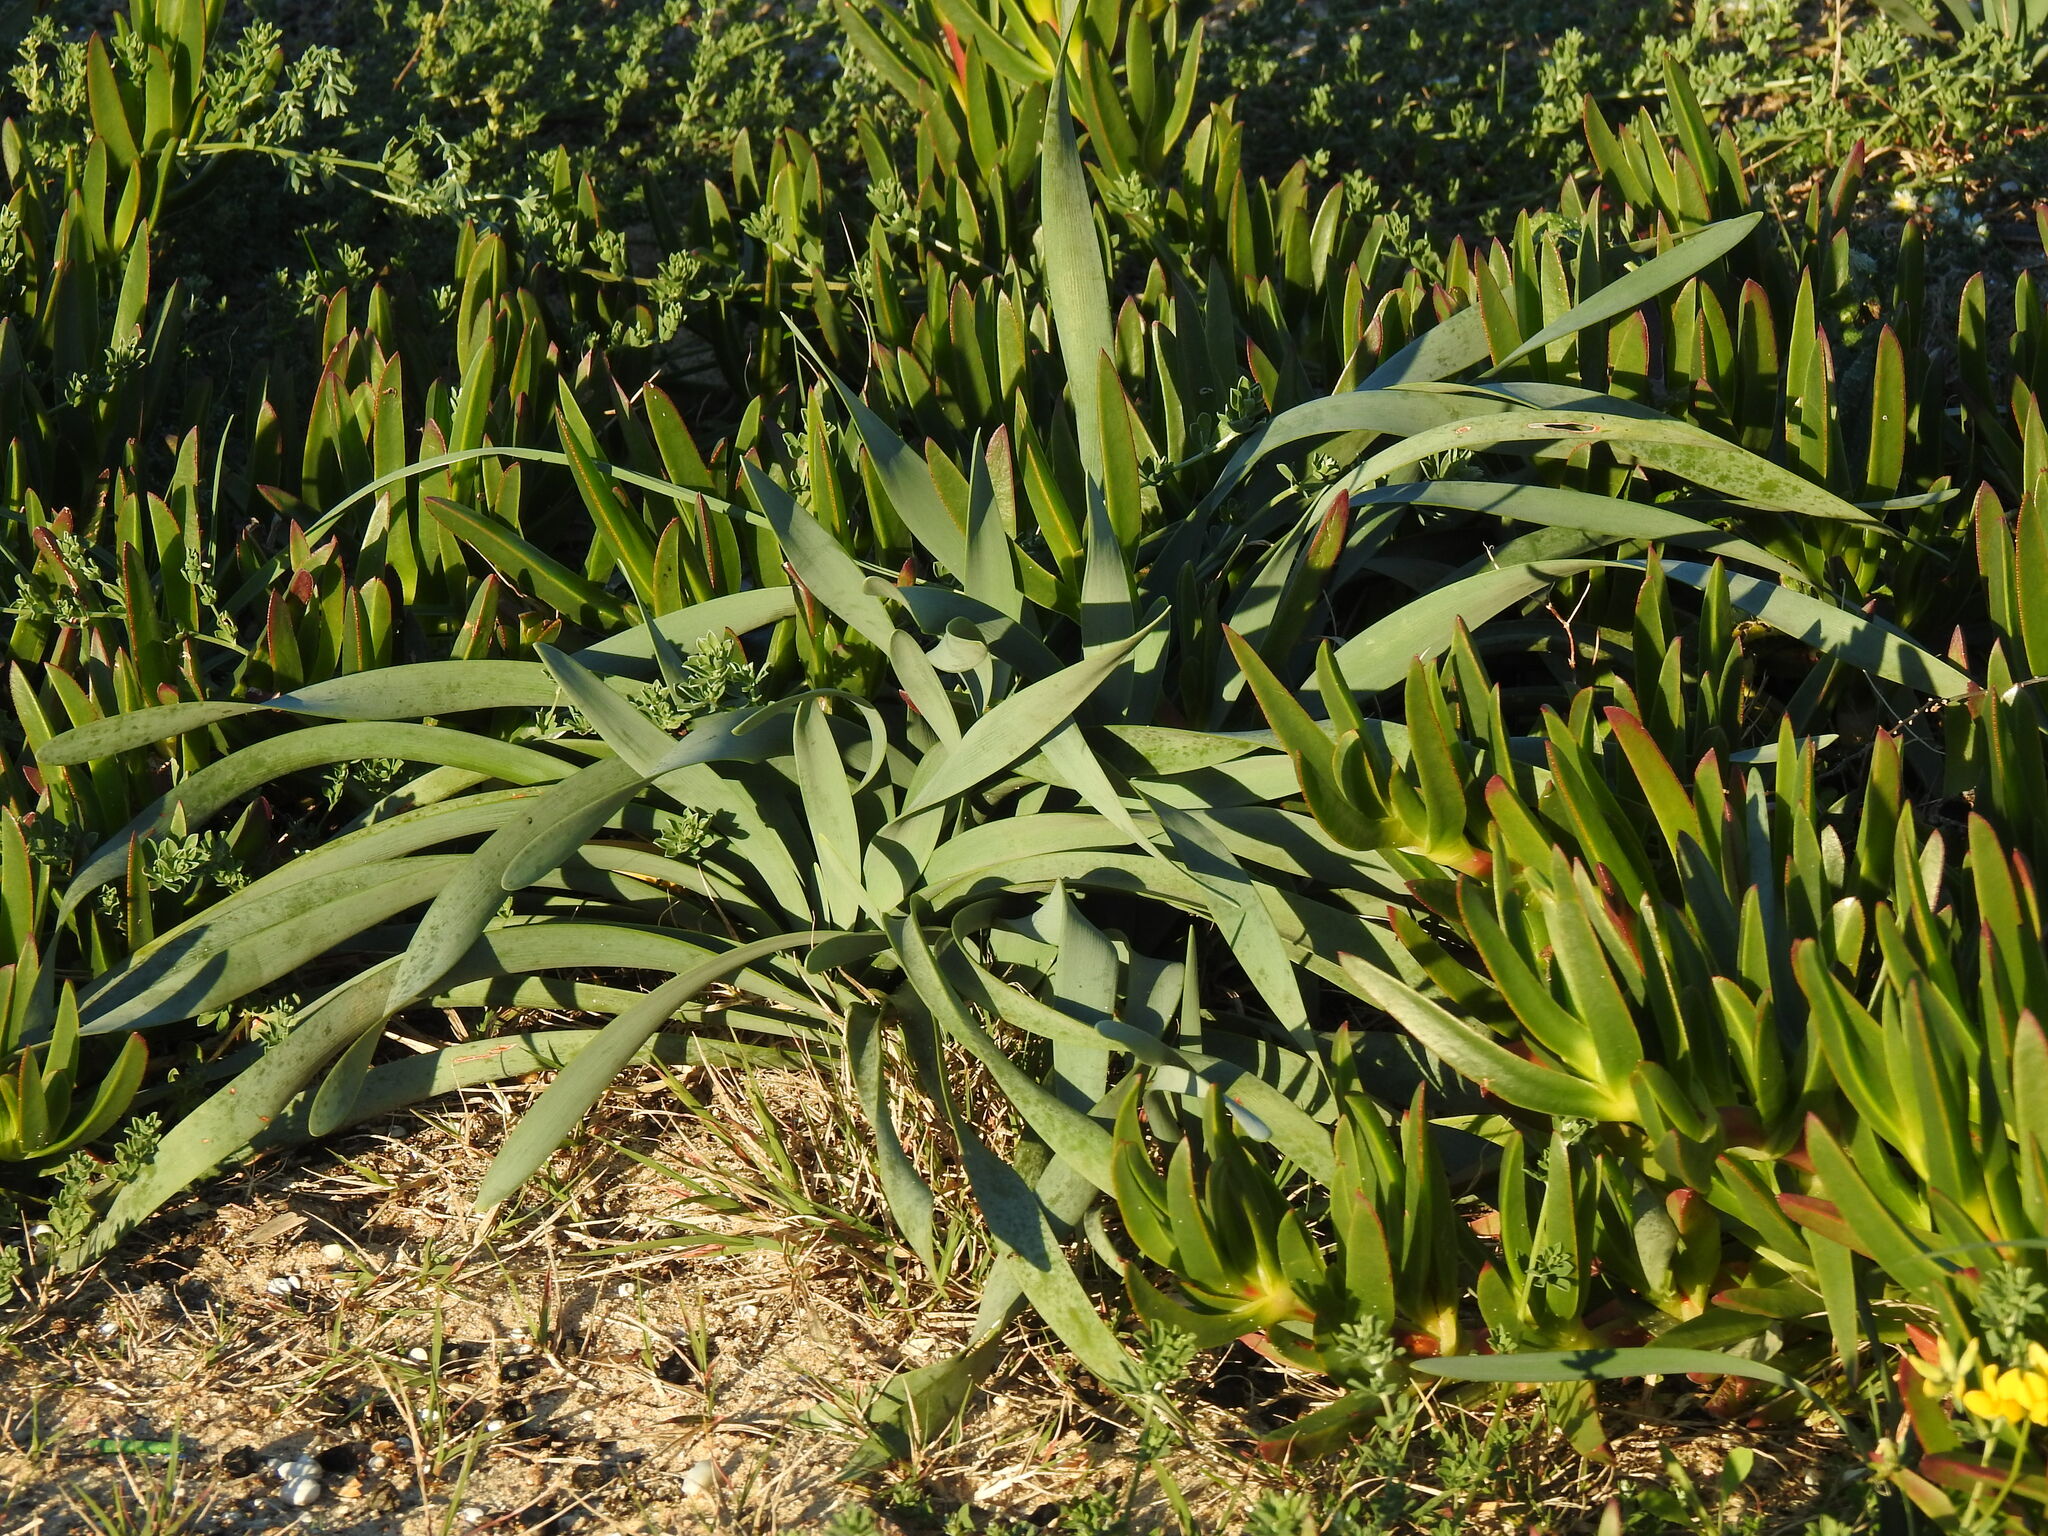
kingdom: Plantae
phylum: Tracheophyta
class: Liliopsida
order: Asparagales
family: Amaryllidaceae
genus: Pancratium
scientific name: Pancratium maritimum
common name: Sea-daffodil
